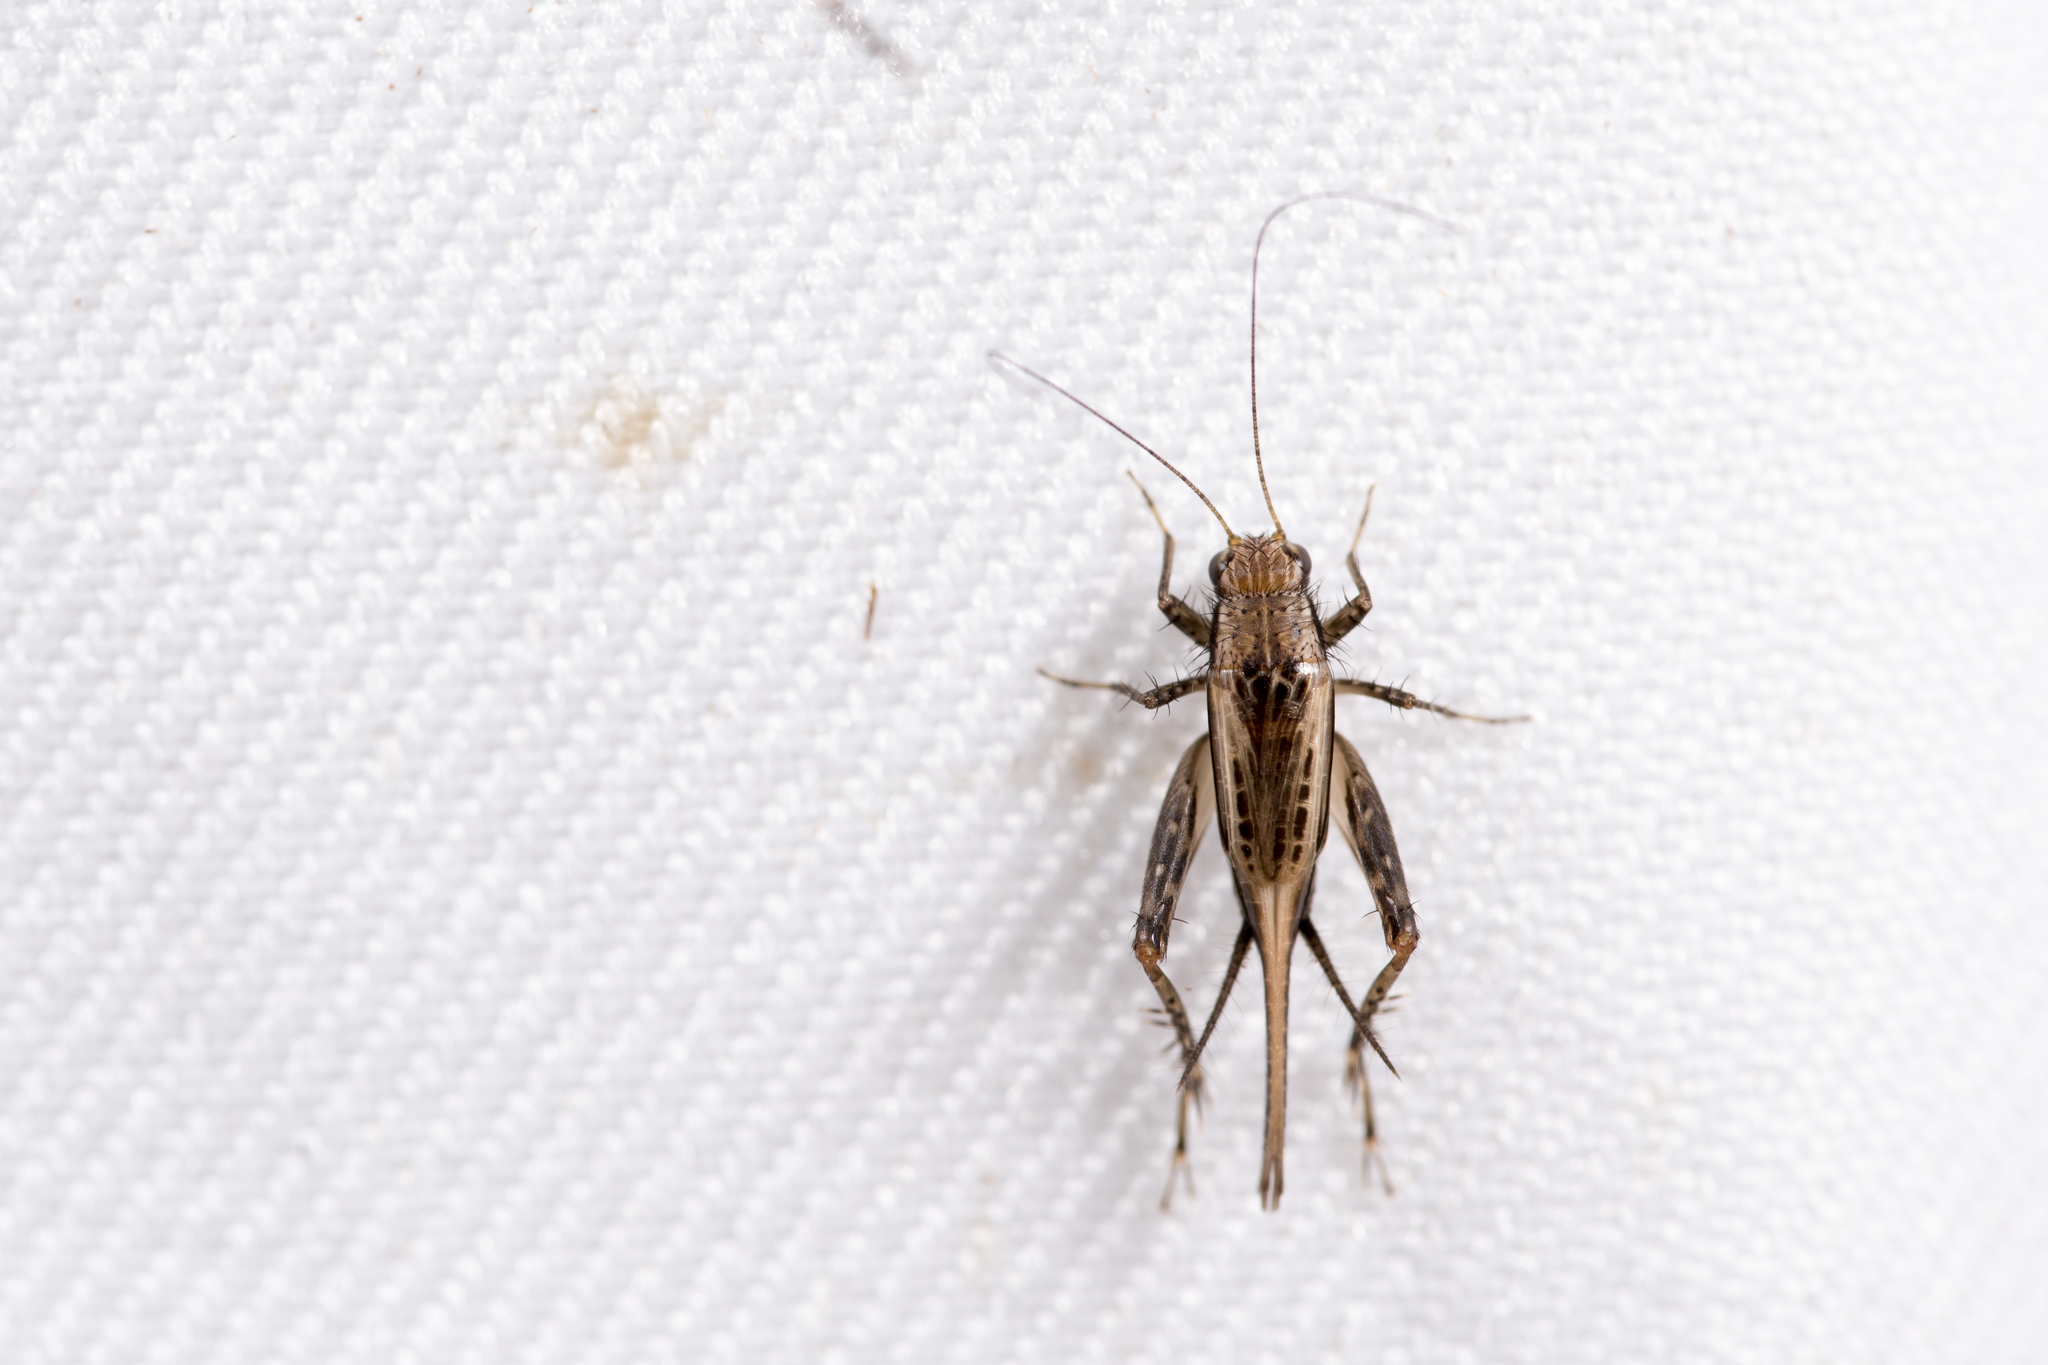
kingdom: Animalia
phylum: Arthropoda
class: Insecta
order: Orthoptera
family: Trigonidiidae
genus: Polionemobius
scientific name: Polionemobius taprobanense
